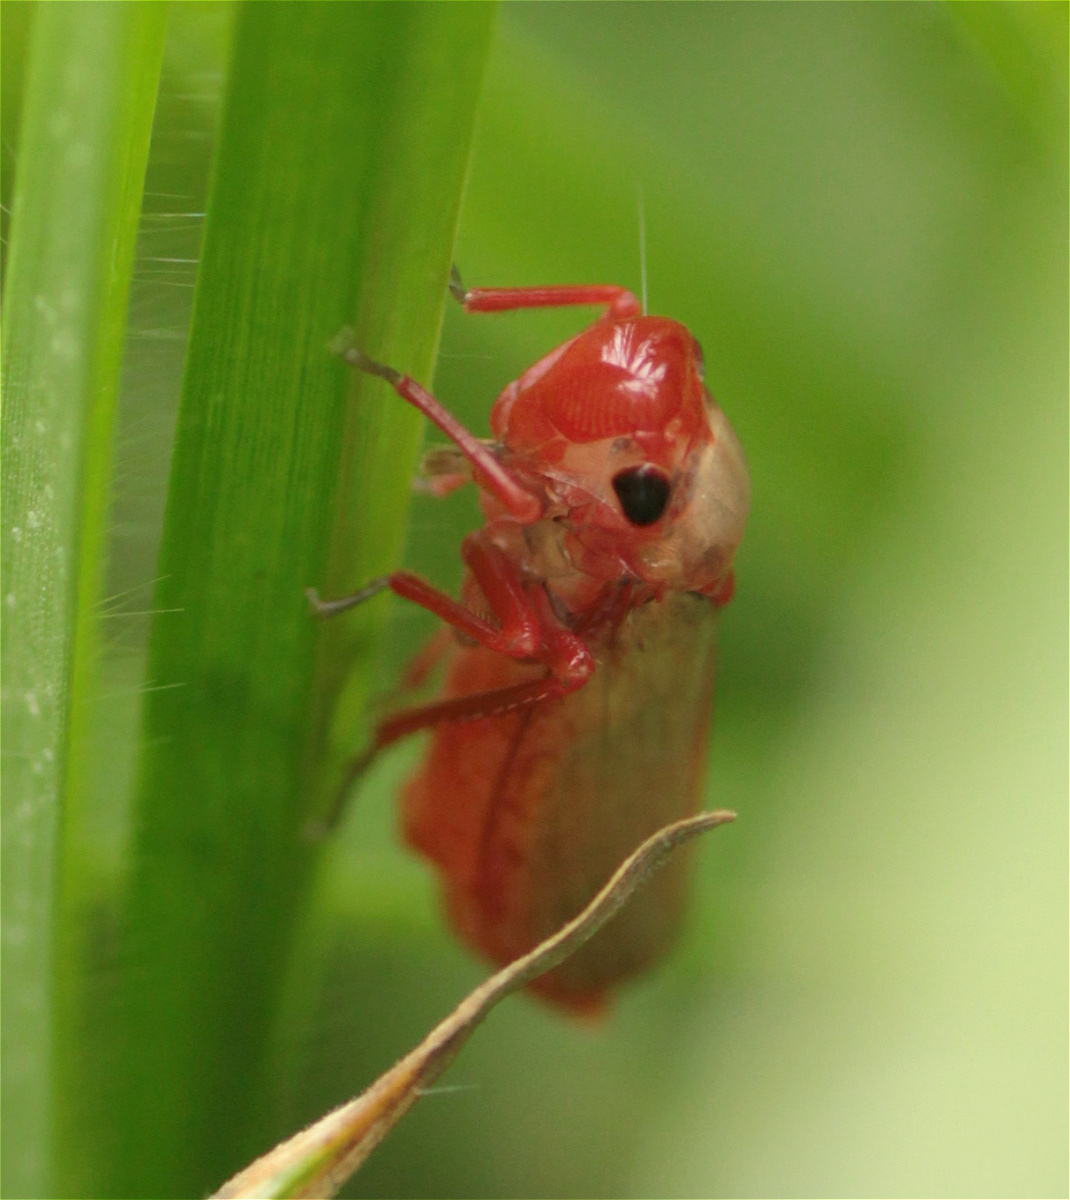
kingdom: Animalia
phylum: Arthropoda
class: Insecta
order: Hemiptera
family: Cicadellidae
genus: Paracatua
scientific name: Paracatua rubrolimbata
